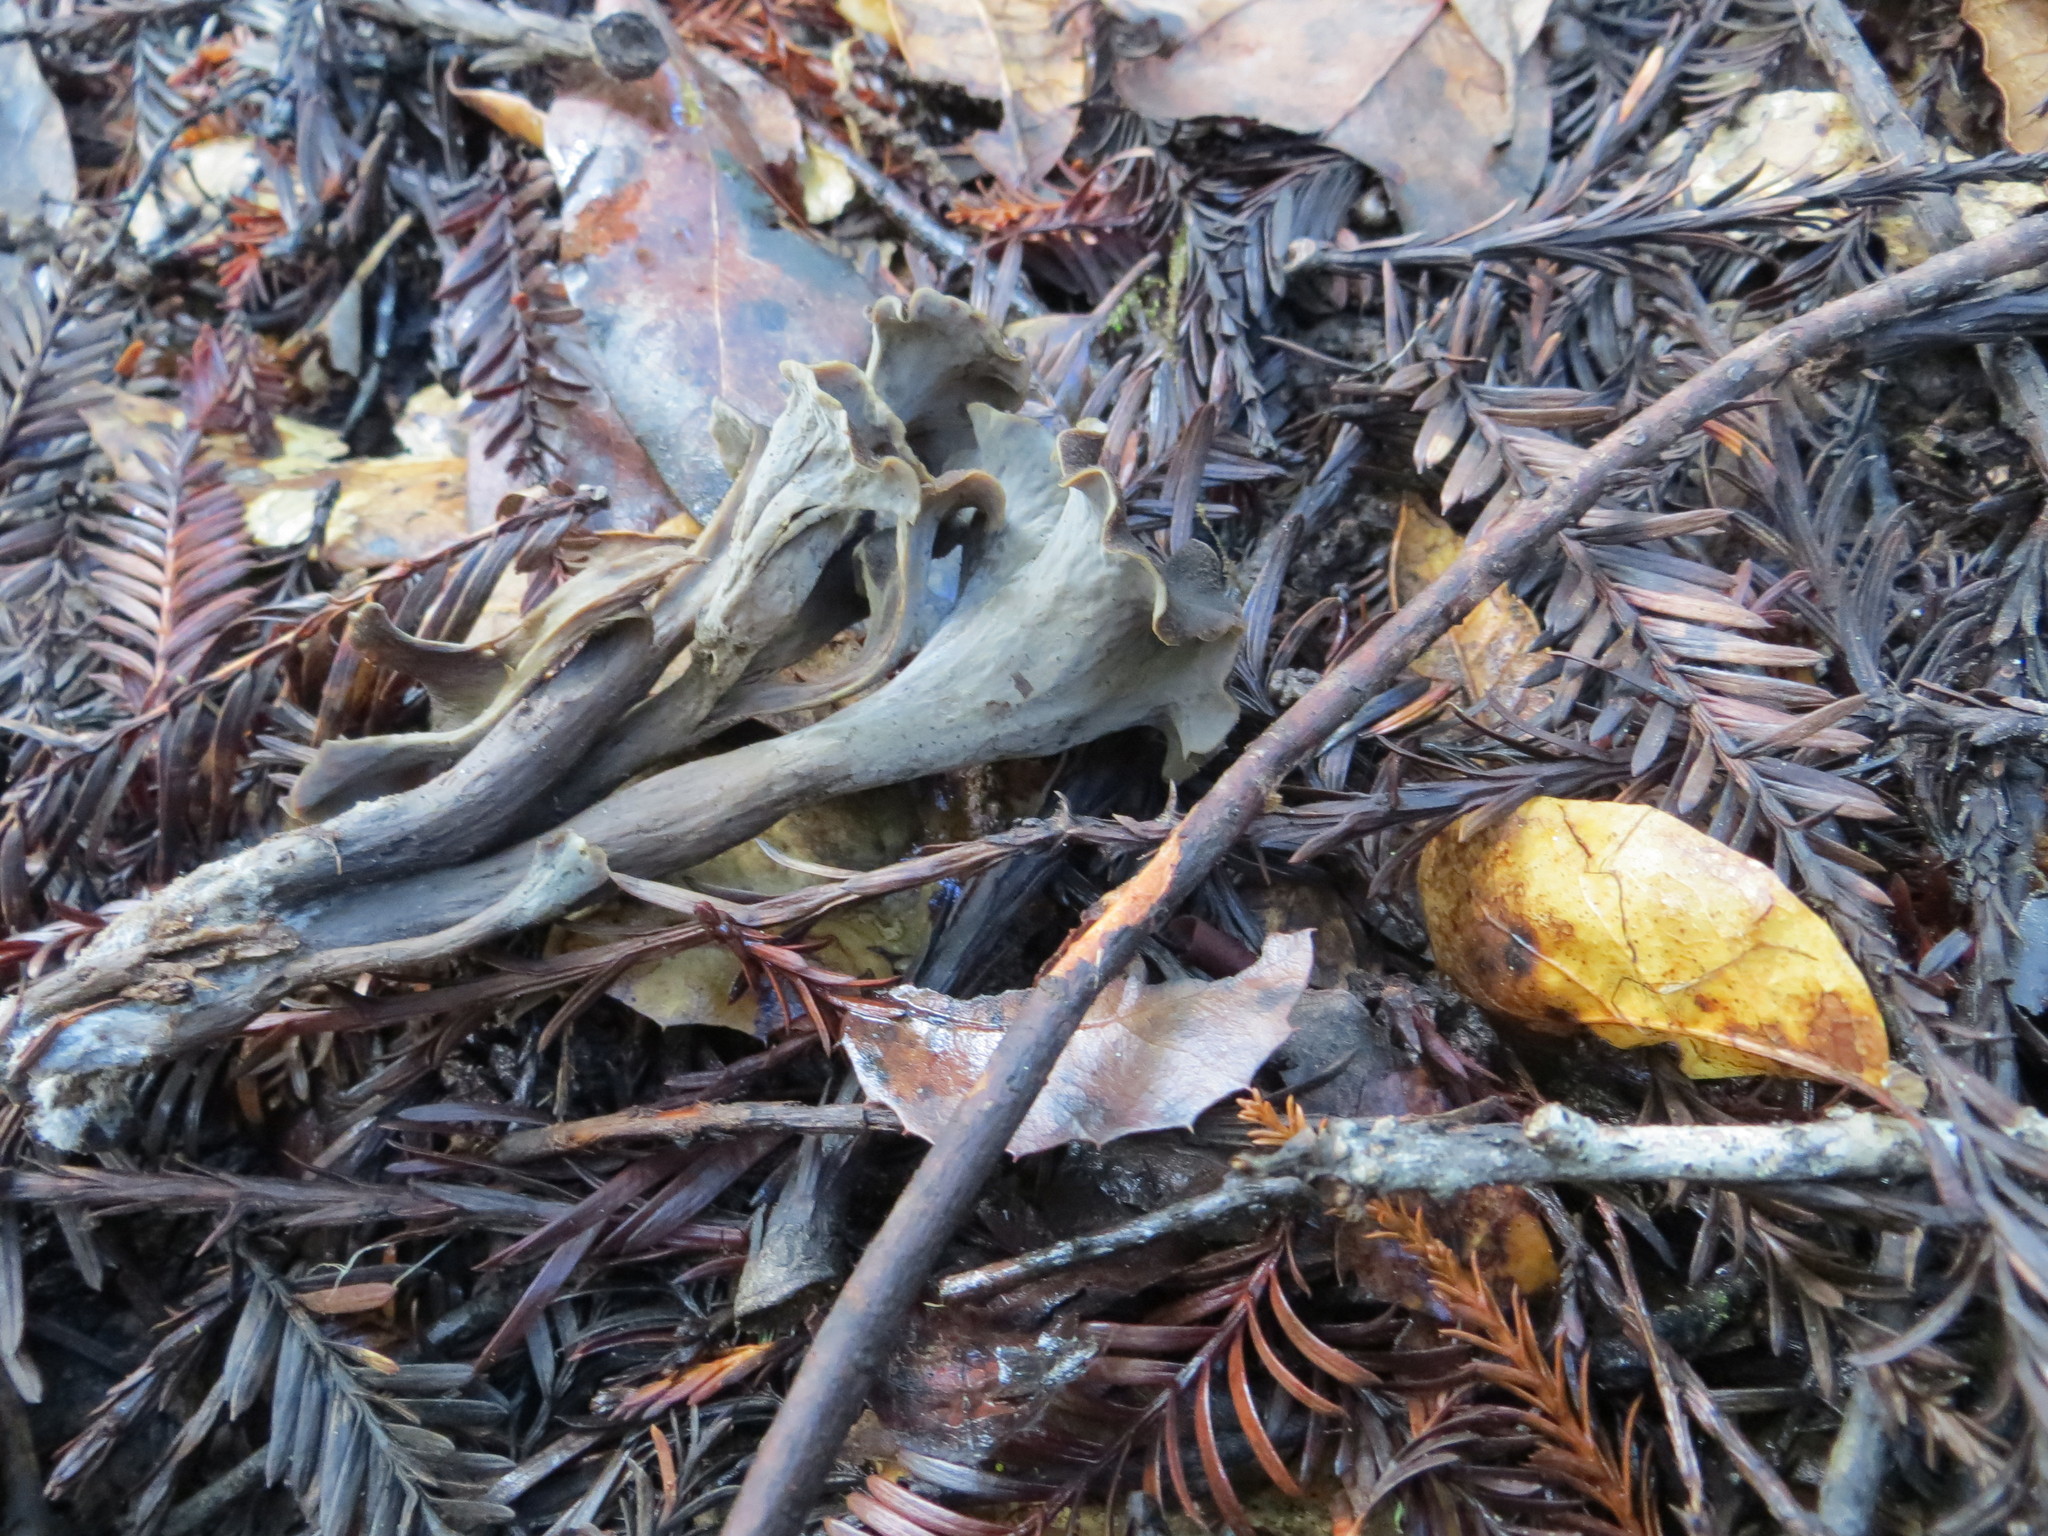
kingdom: Fungi
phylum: Basidiomycota
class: Agaricomycetes
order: Cantharellales
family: Hydnaceae
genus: Craterellus
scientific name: Craterellus calicornucopioides
